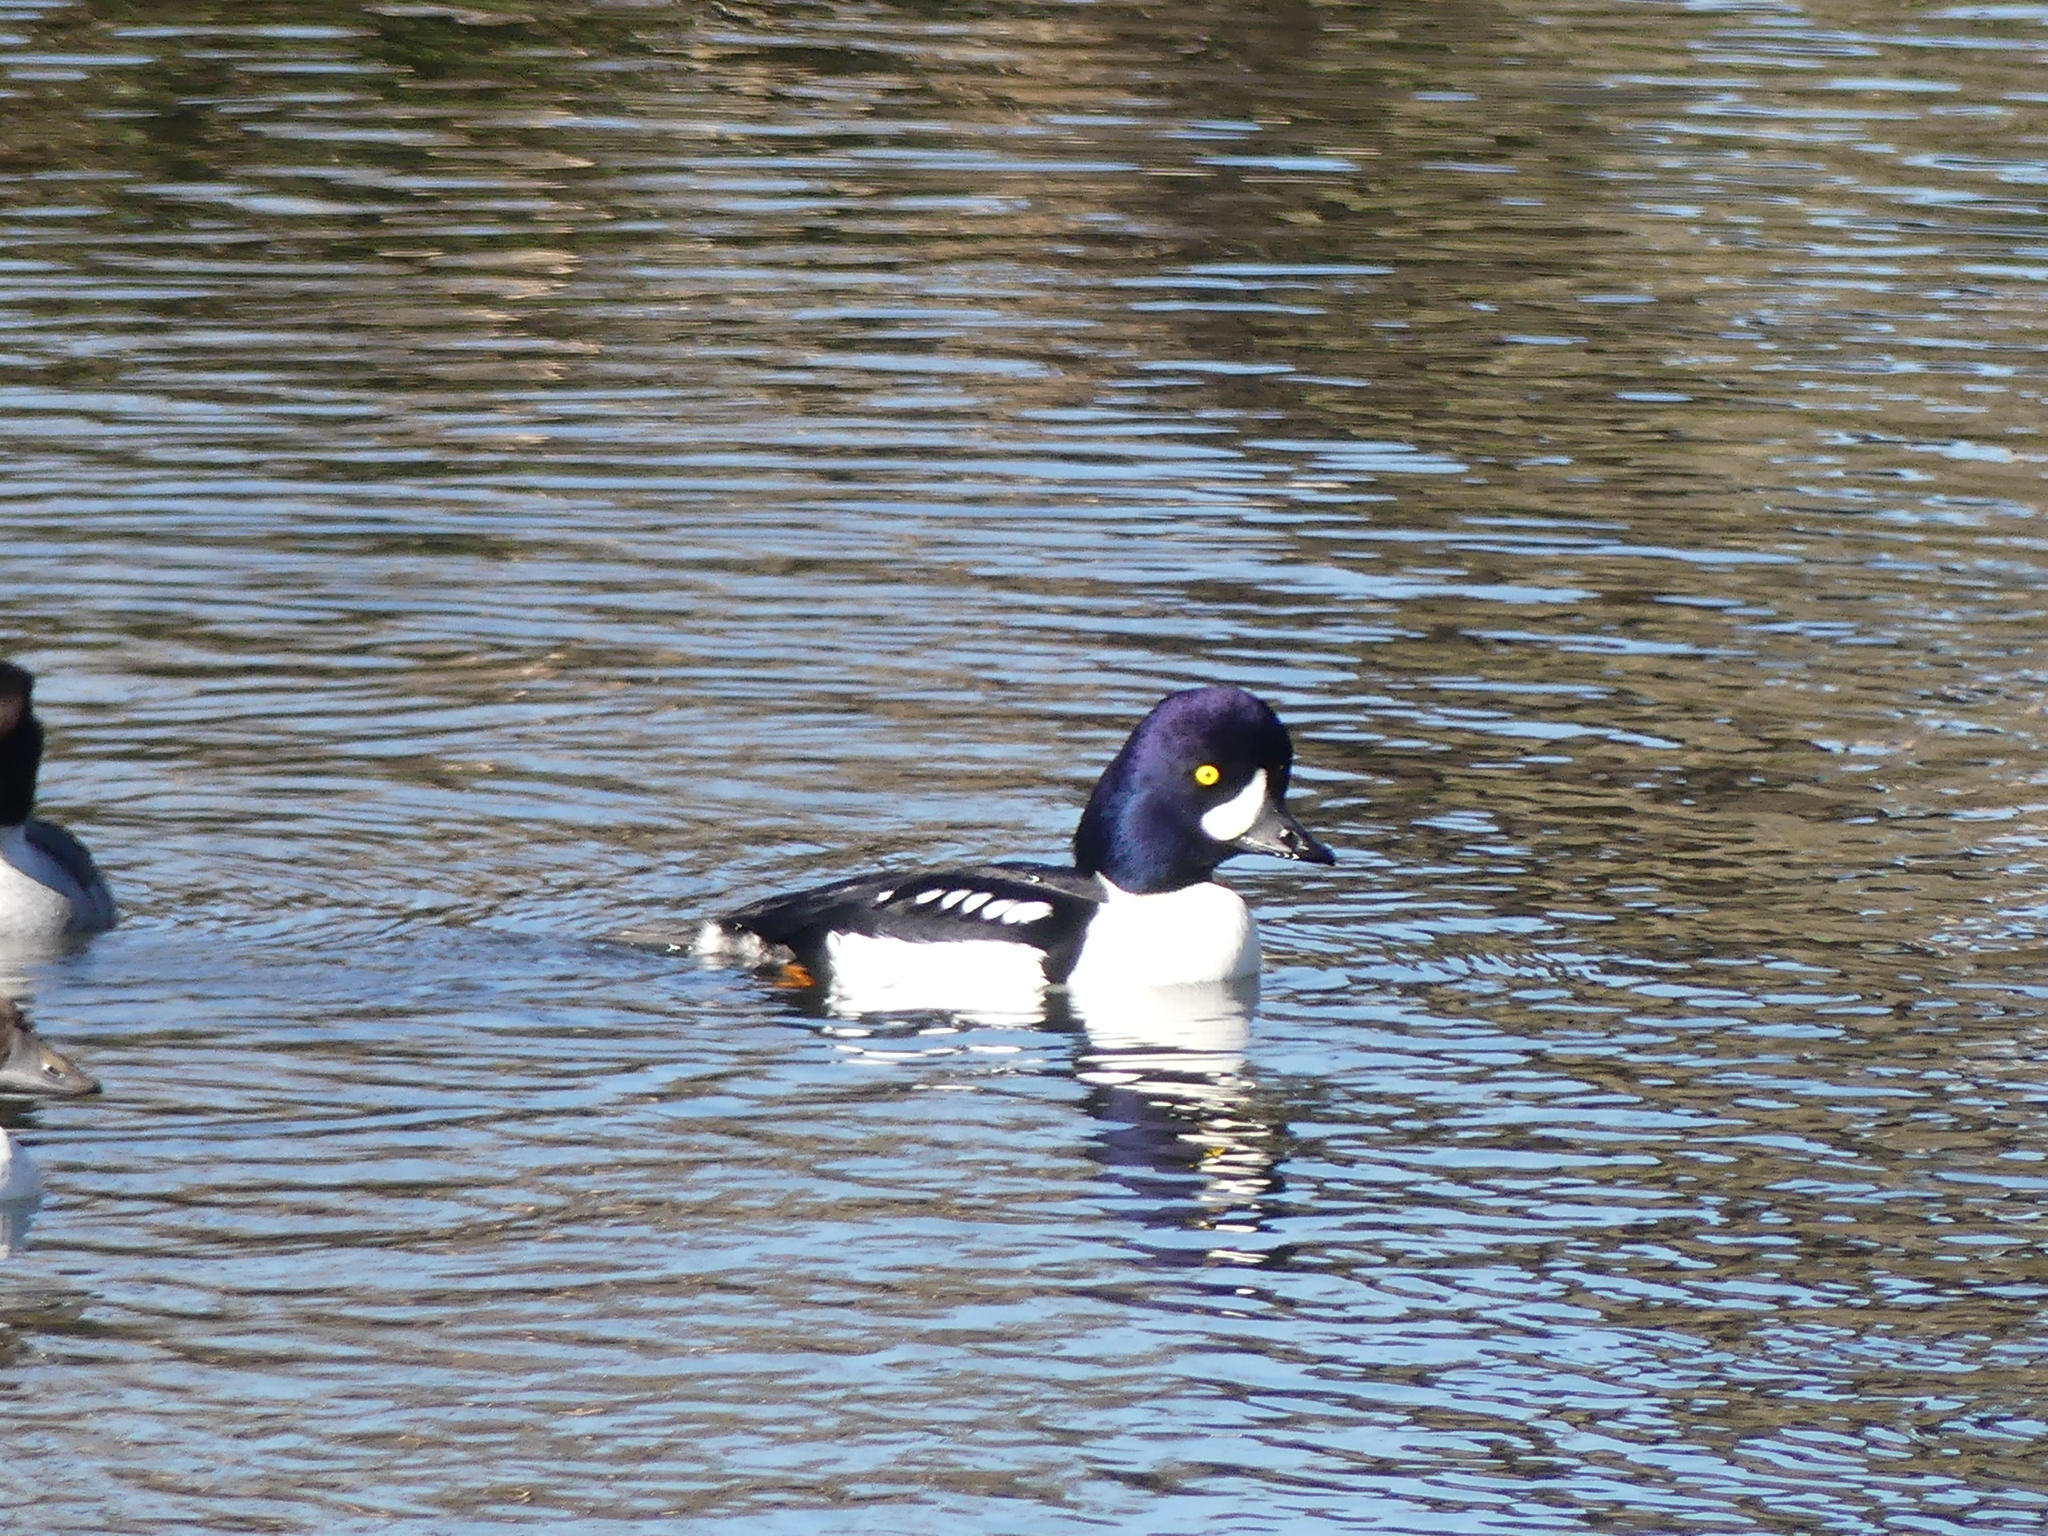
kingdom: Animalia
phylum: Chordata
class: Aves
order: Anseriformes
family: Anatidae
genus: Bucephala
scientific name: Bucephala islandica
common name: Barrow's goldeneye
